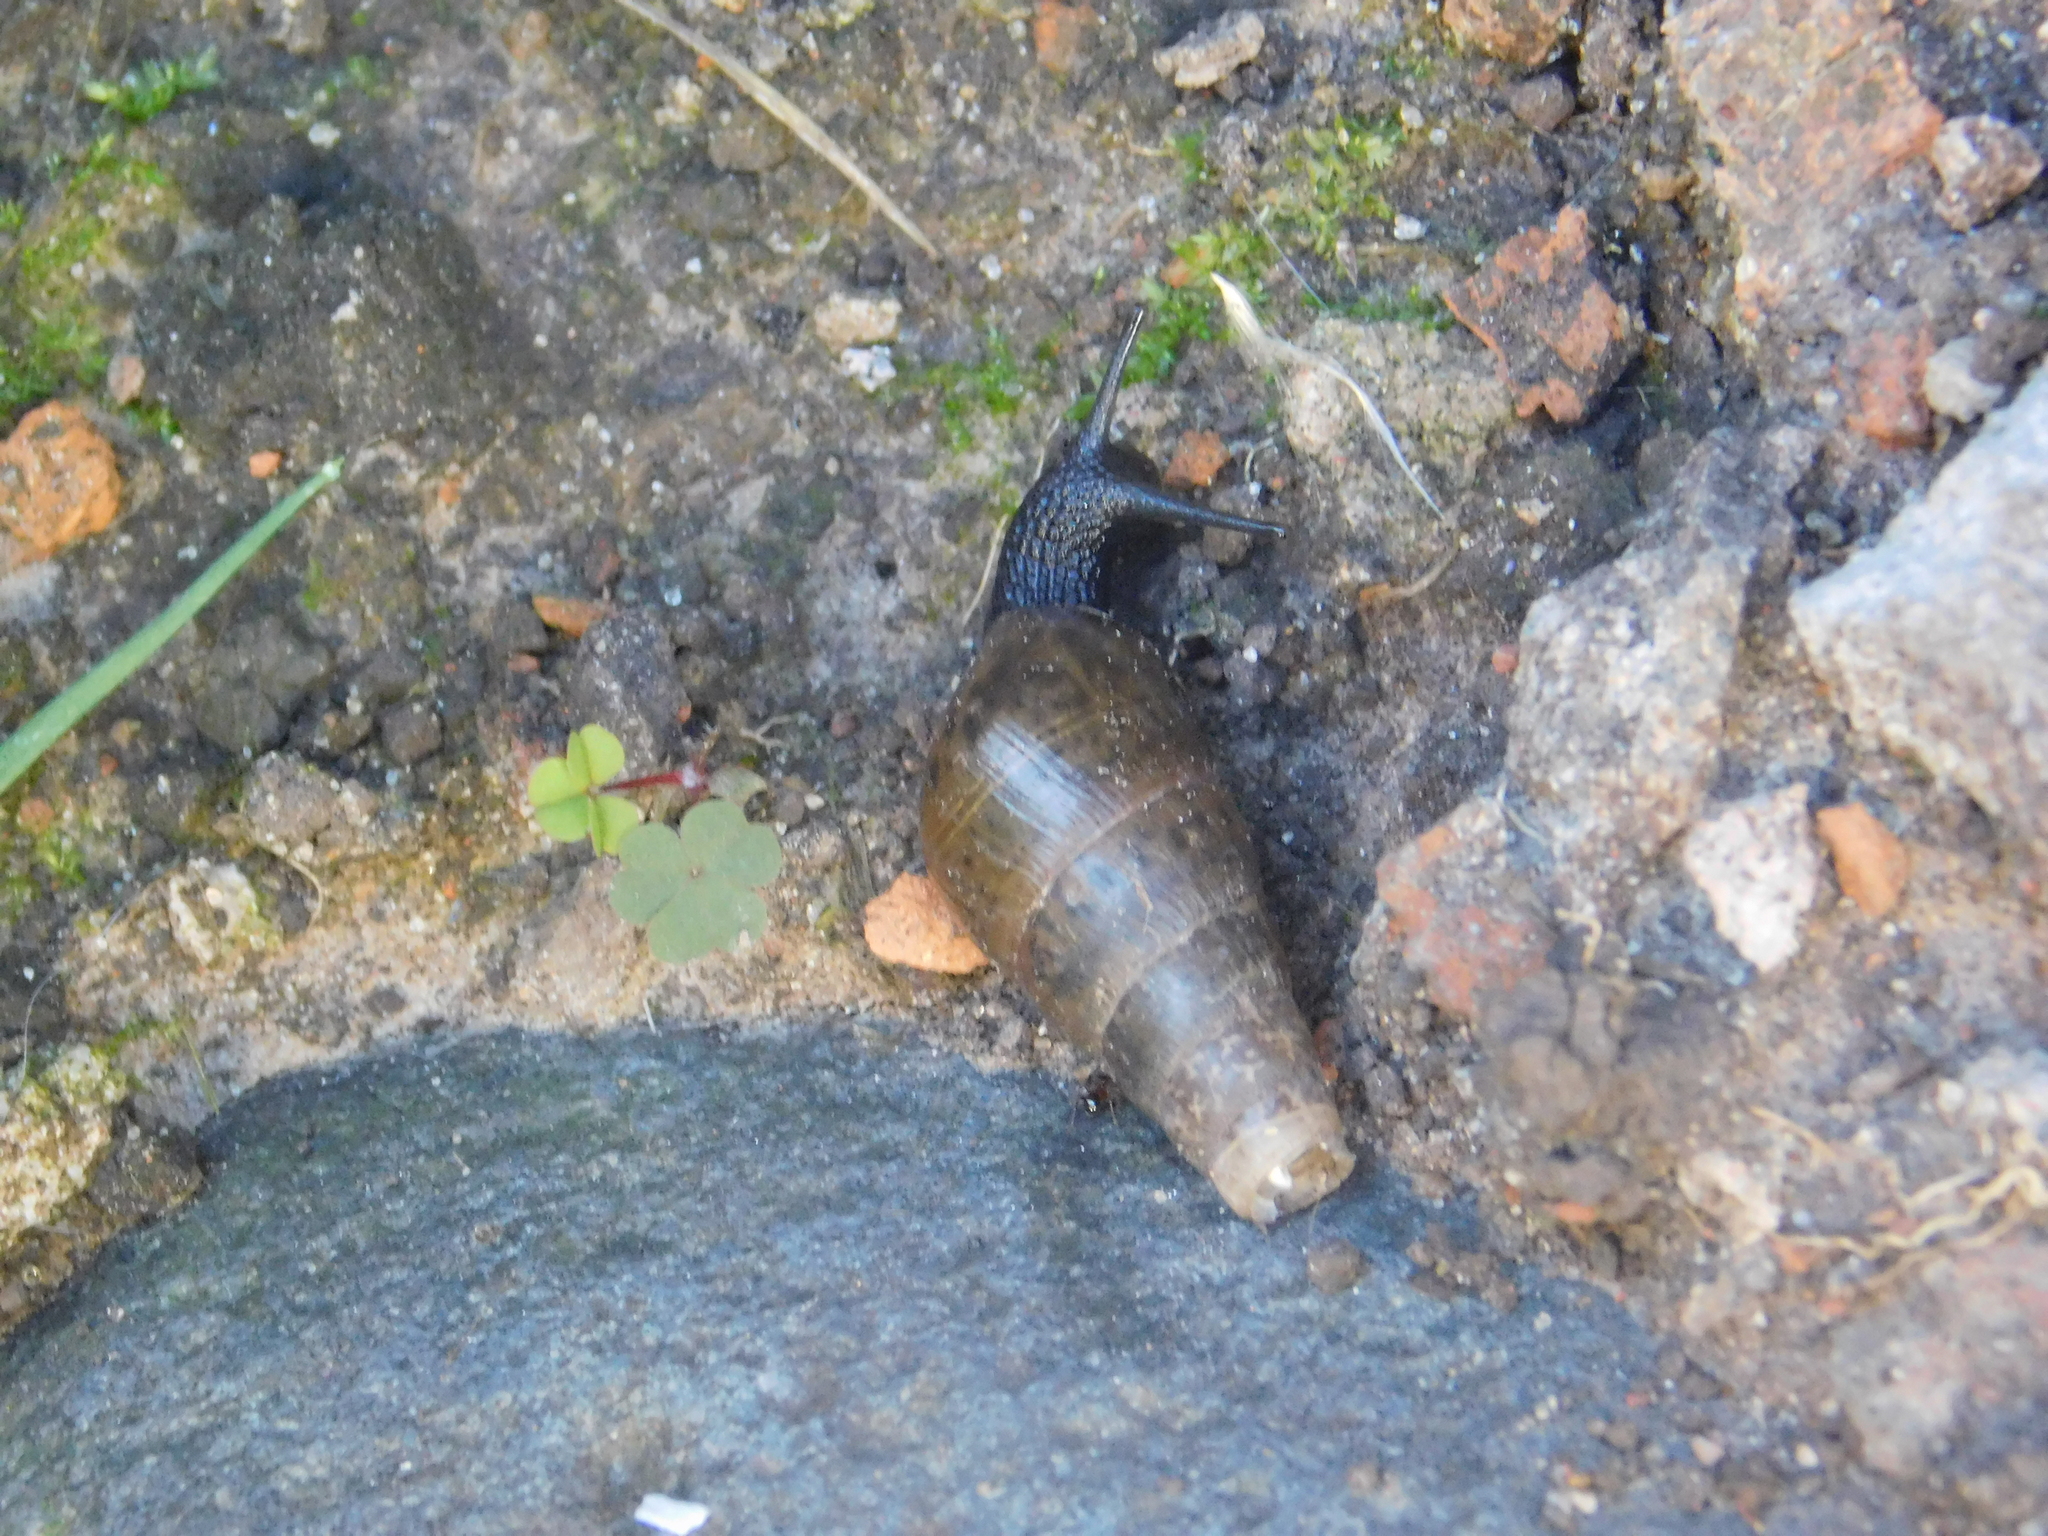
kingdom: Animalia
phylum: Mollusca
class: Gastropoda
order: Stylommatophora
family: Achatinidae
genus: Rumina
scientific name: Rumina decollata
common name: Decollate snail
